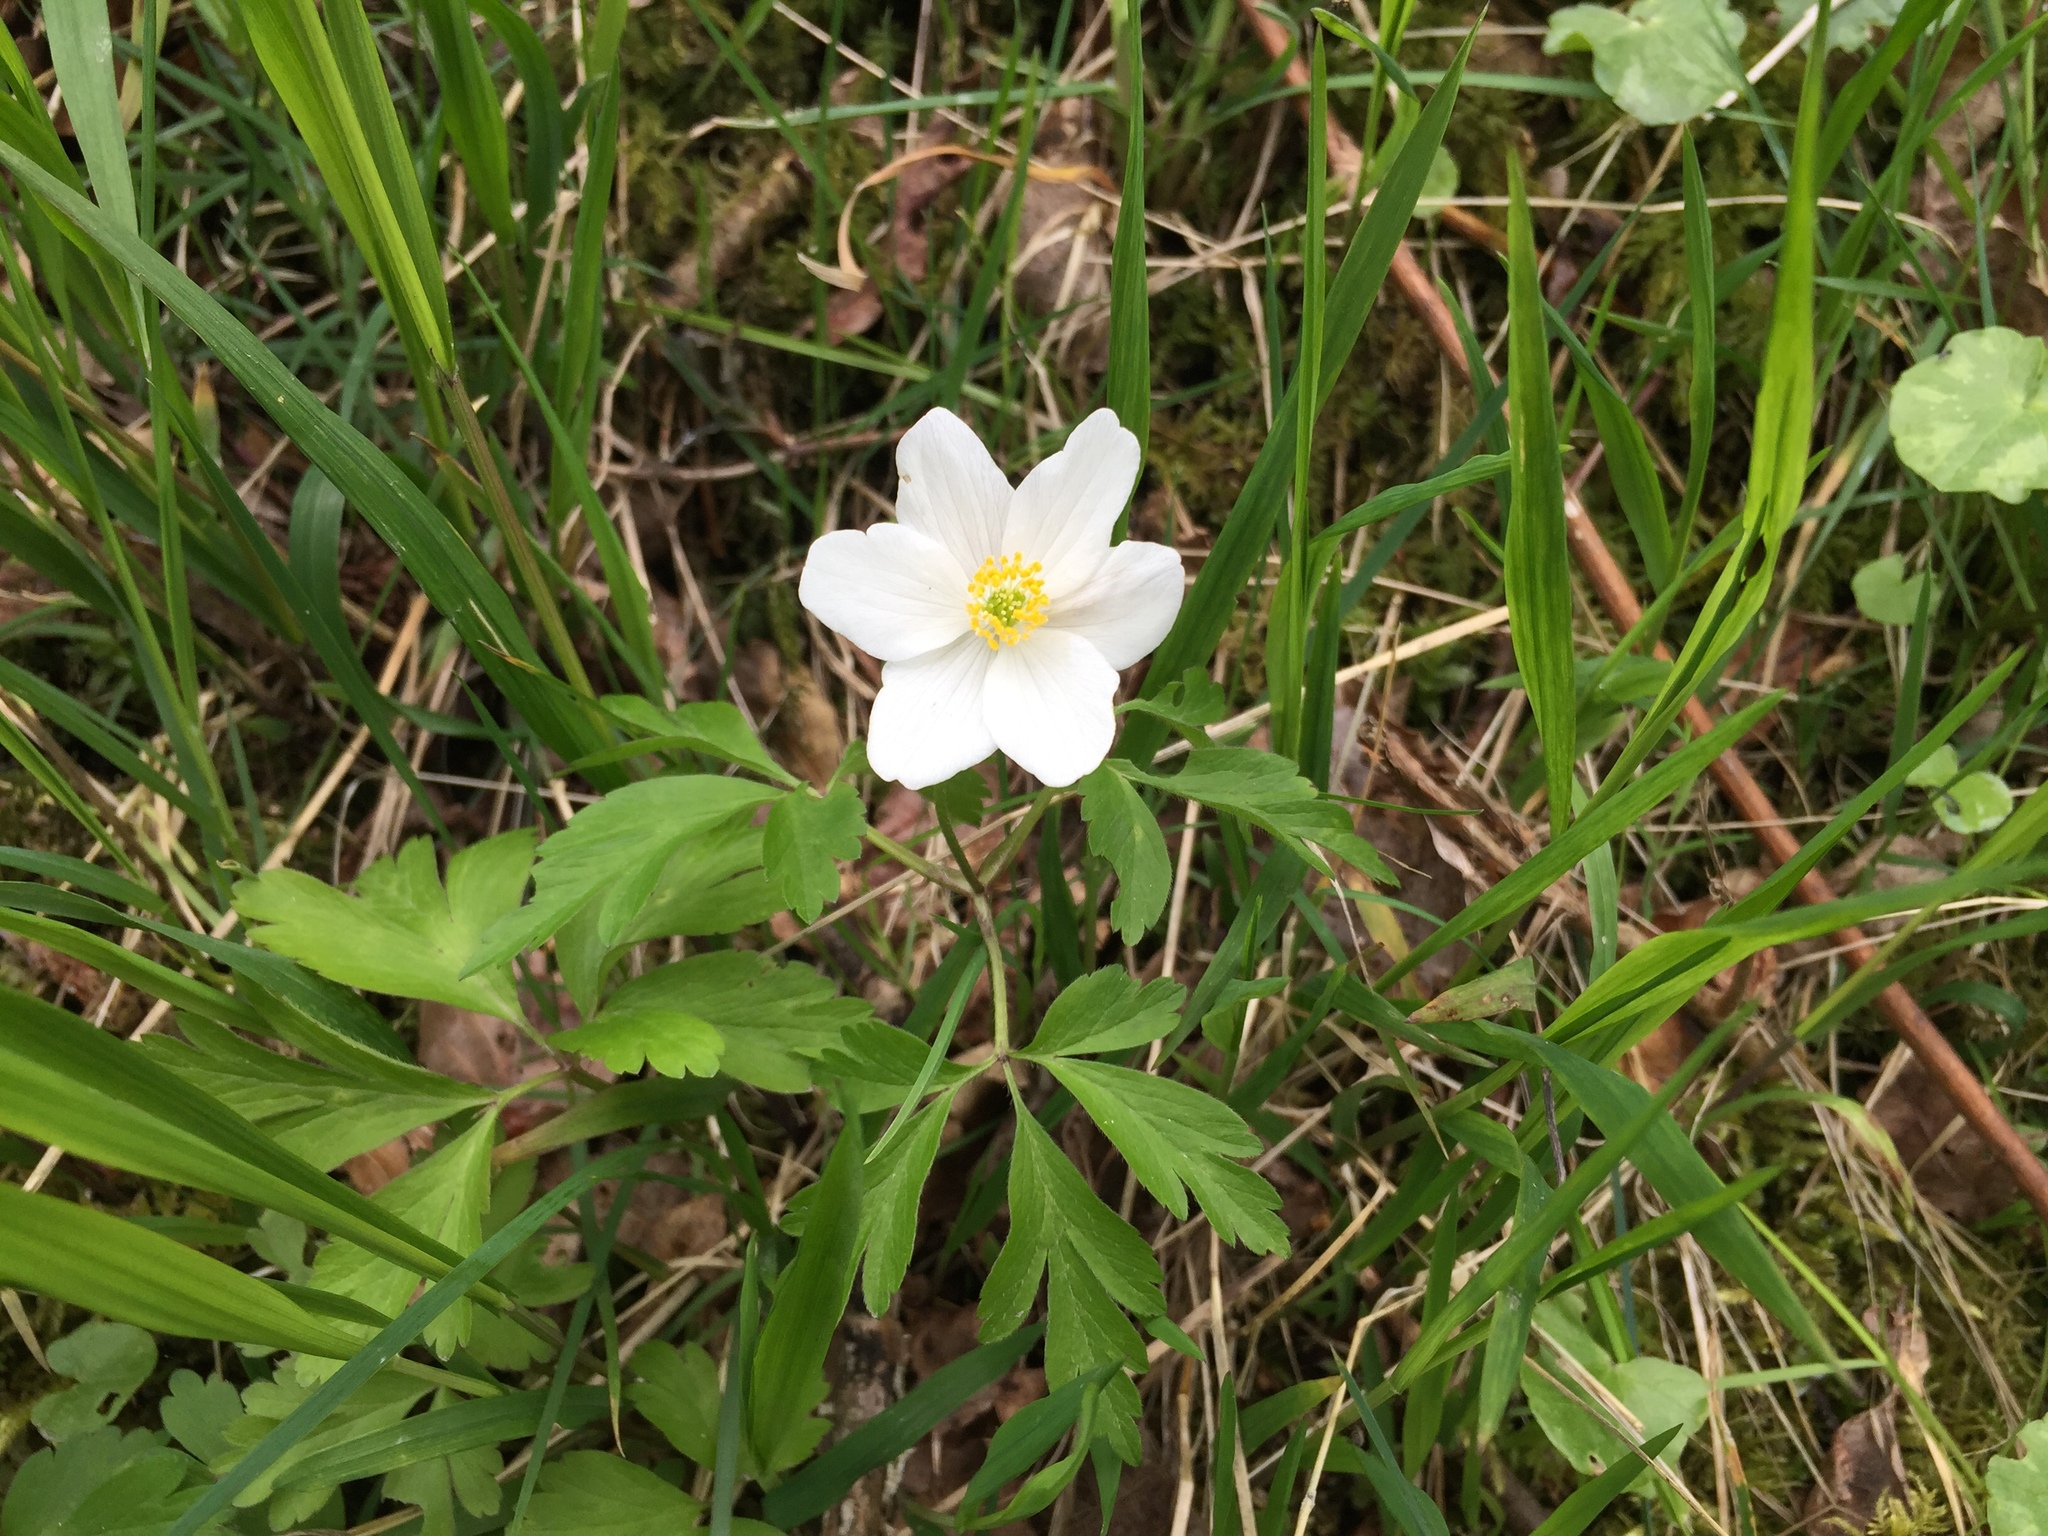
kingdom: Plantae
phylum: Tracheophyta
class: Magnoliopsida
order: Ranunculales
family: Ranunculaceae
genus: Anemone
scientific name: Anemone nemorosa
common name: Wood anemone
